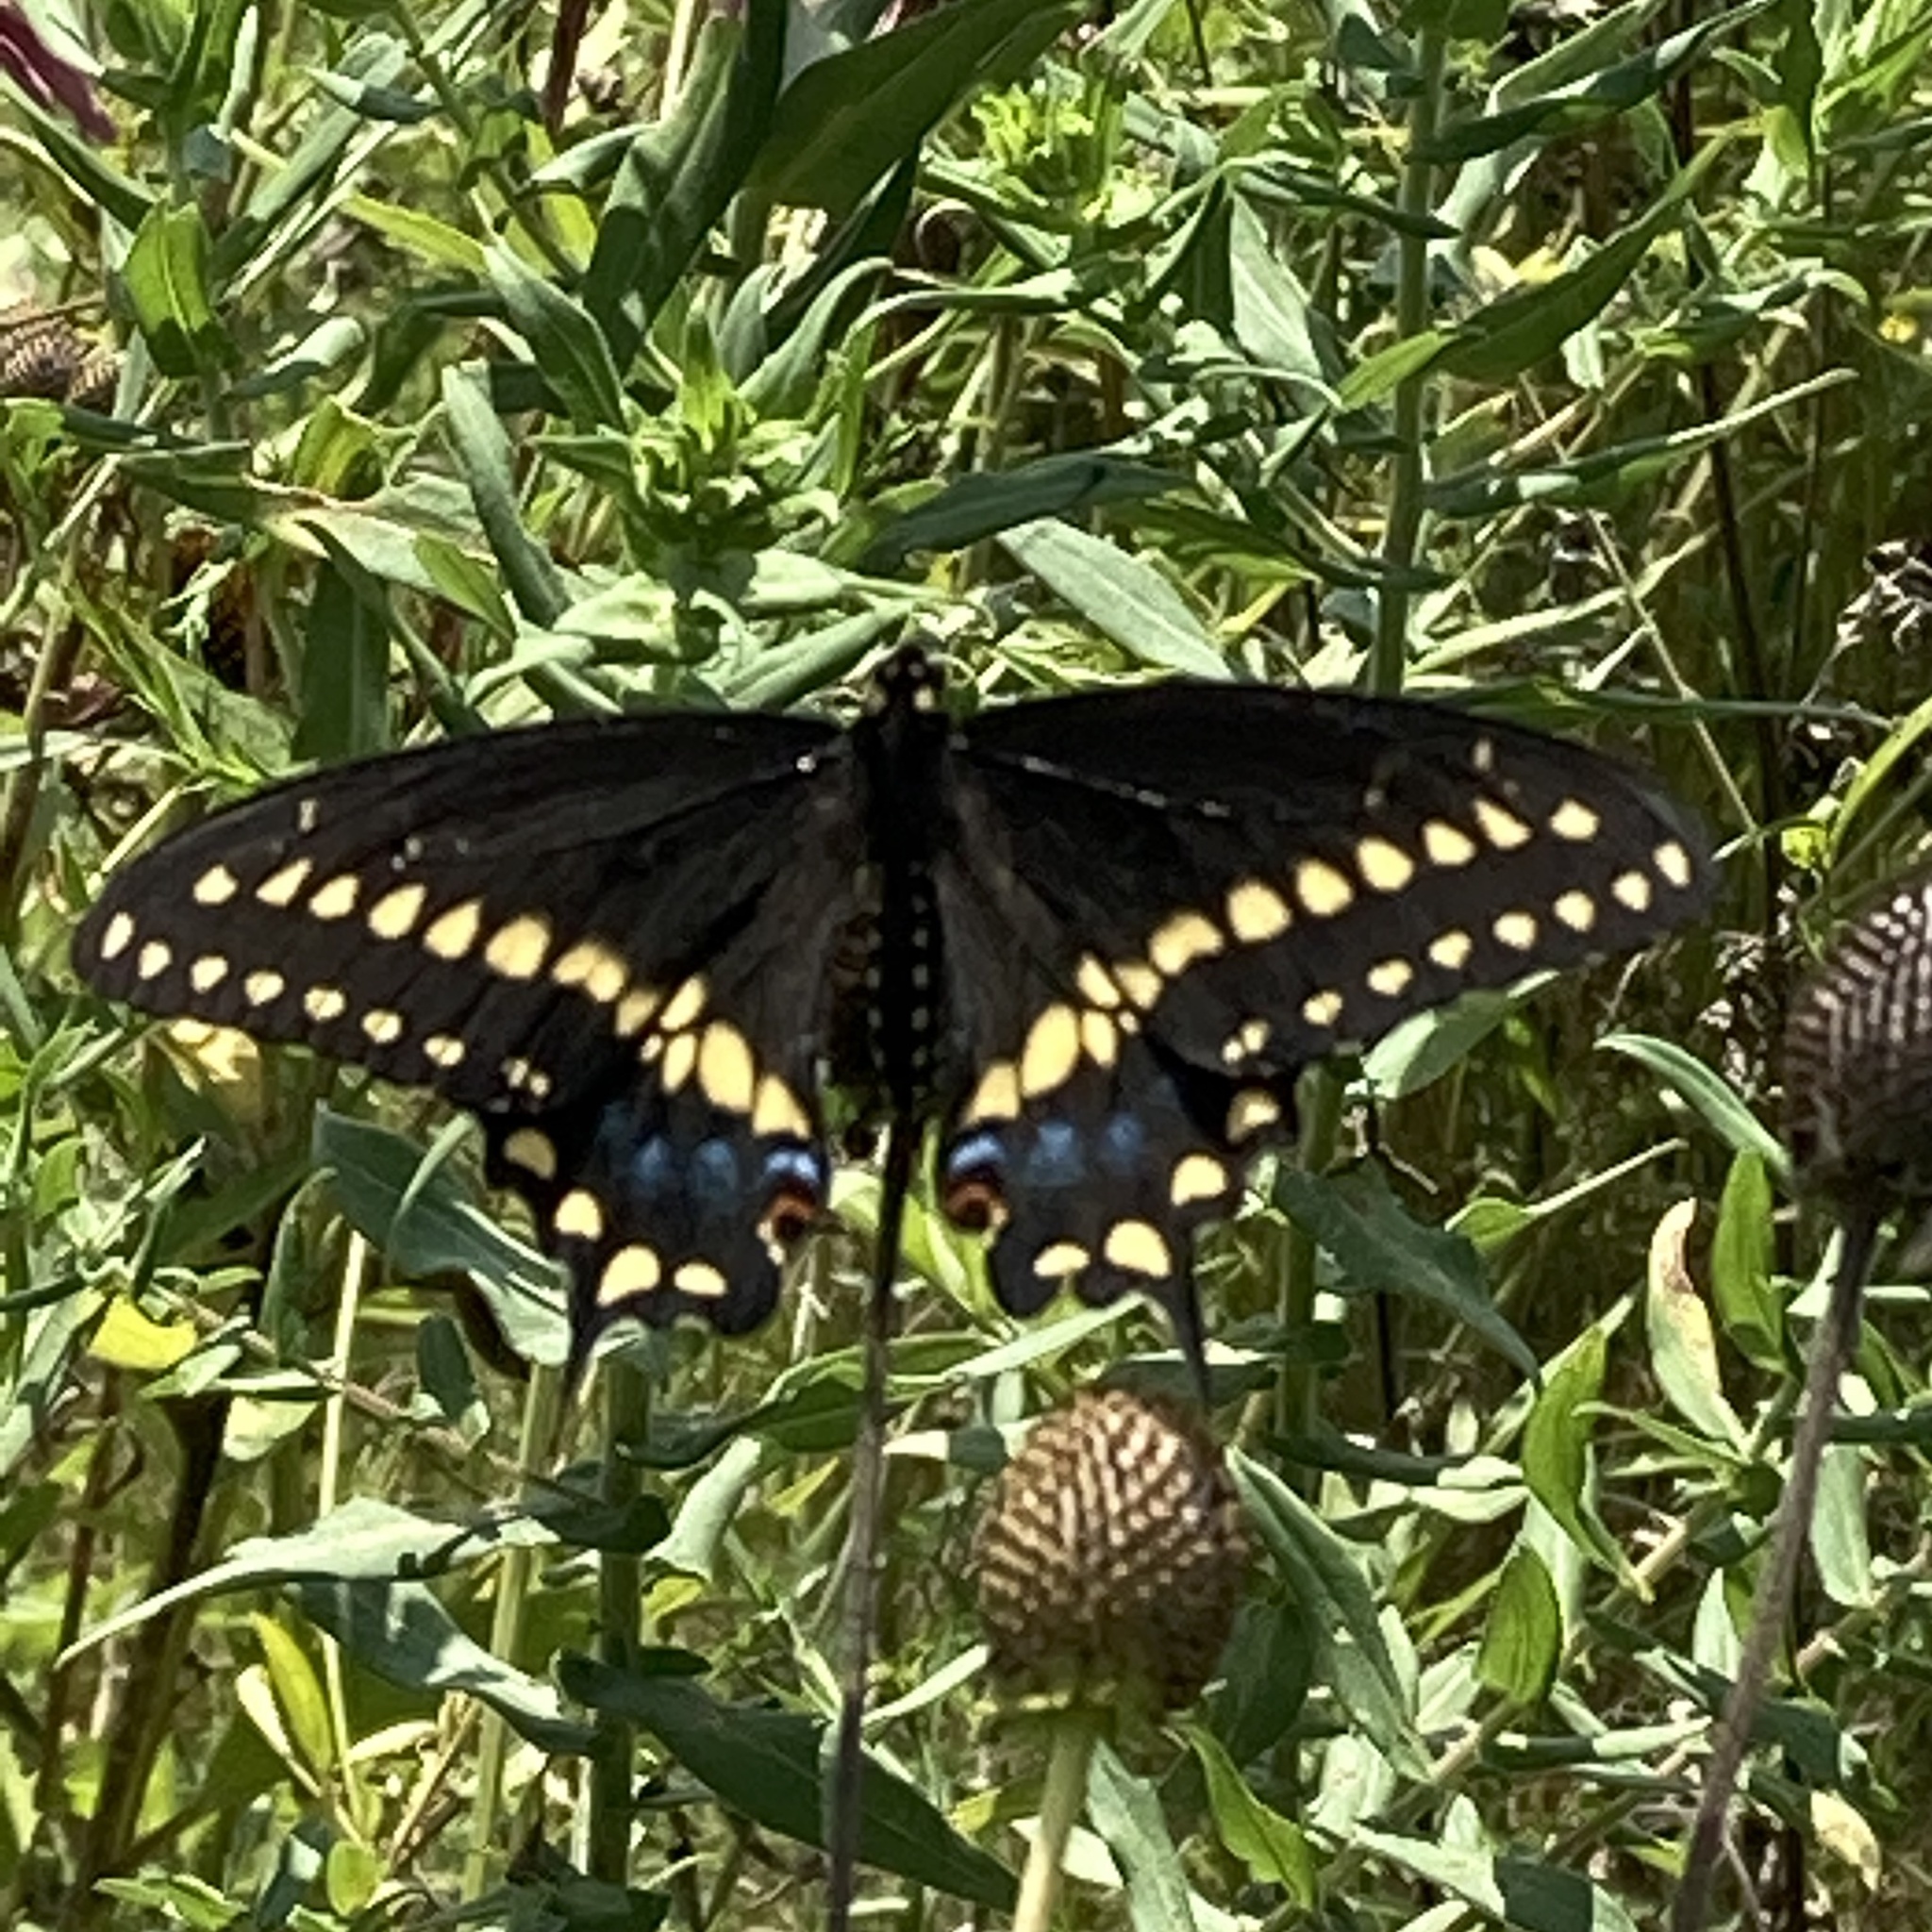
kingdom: Animalia
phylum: Arthropoda
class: Insecta
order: Lepidoptera
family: Papilionidae
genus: Papilio
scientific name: Papilio polyxenes
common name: Black swallowtail
